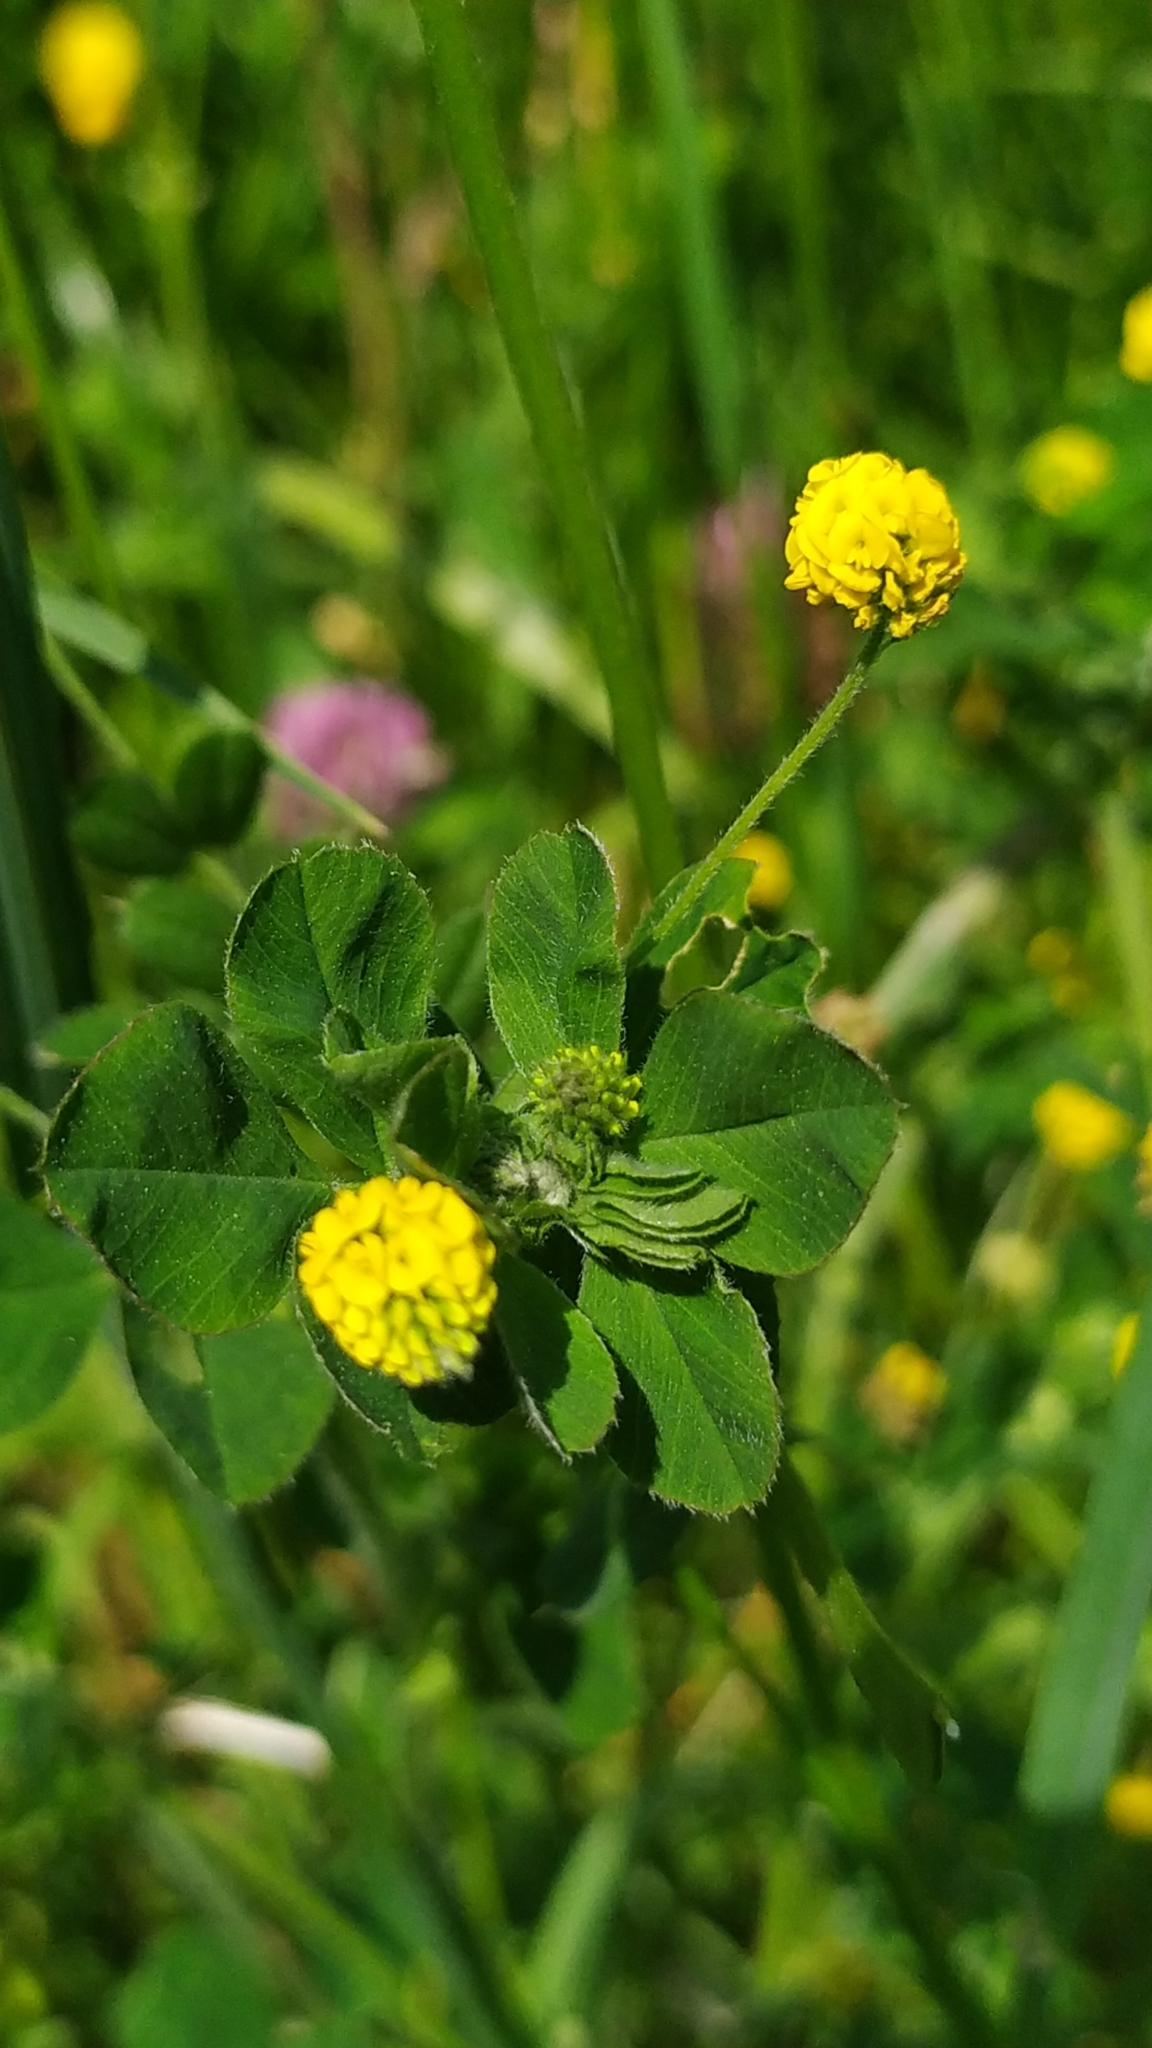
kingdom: Plantae
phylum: Tracheophyta
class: Magnoliopsida
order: Fabales
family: Fabaceae
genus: Medicago
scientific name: Medicago lupulina
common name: Black medick
